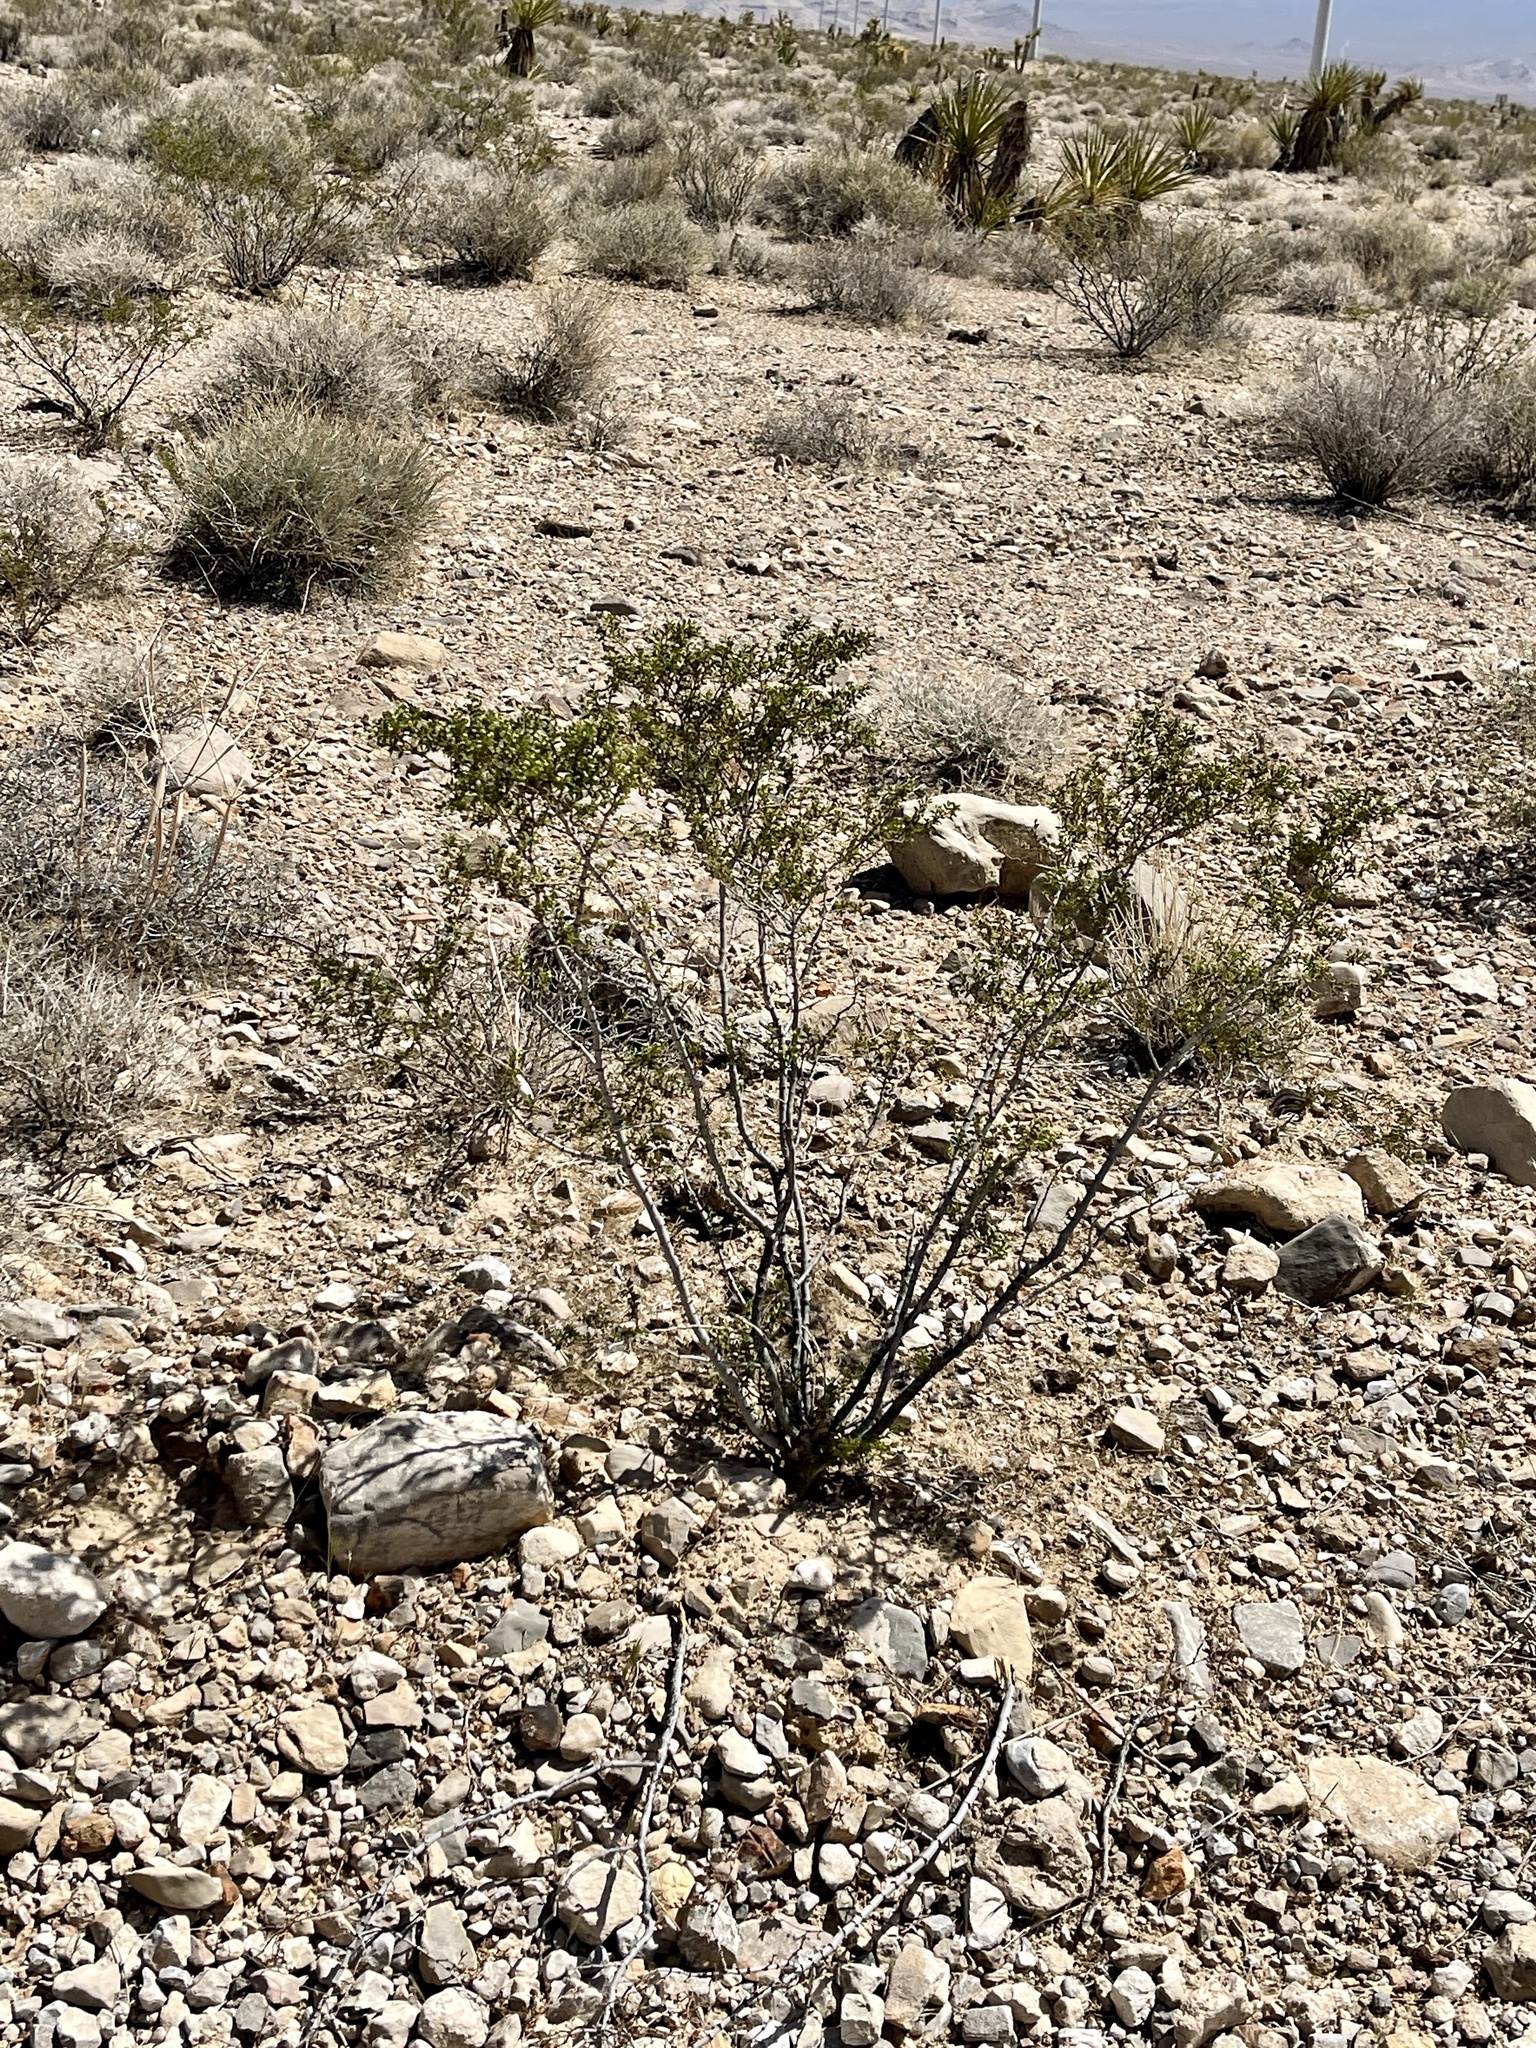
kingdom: Plantae
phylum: Tracheophyta
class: Magnoliopsida
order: Zygophyllales
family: Zygophyllaceae
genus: Larrea
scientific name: Larrea tridentata
